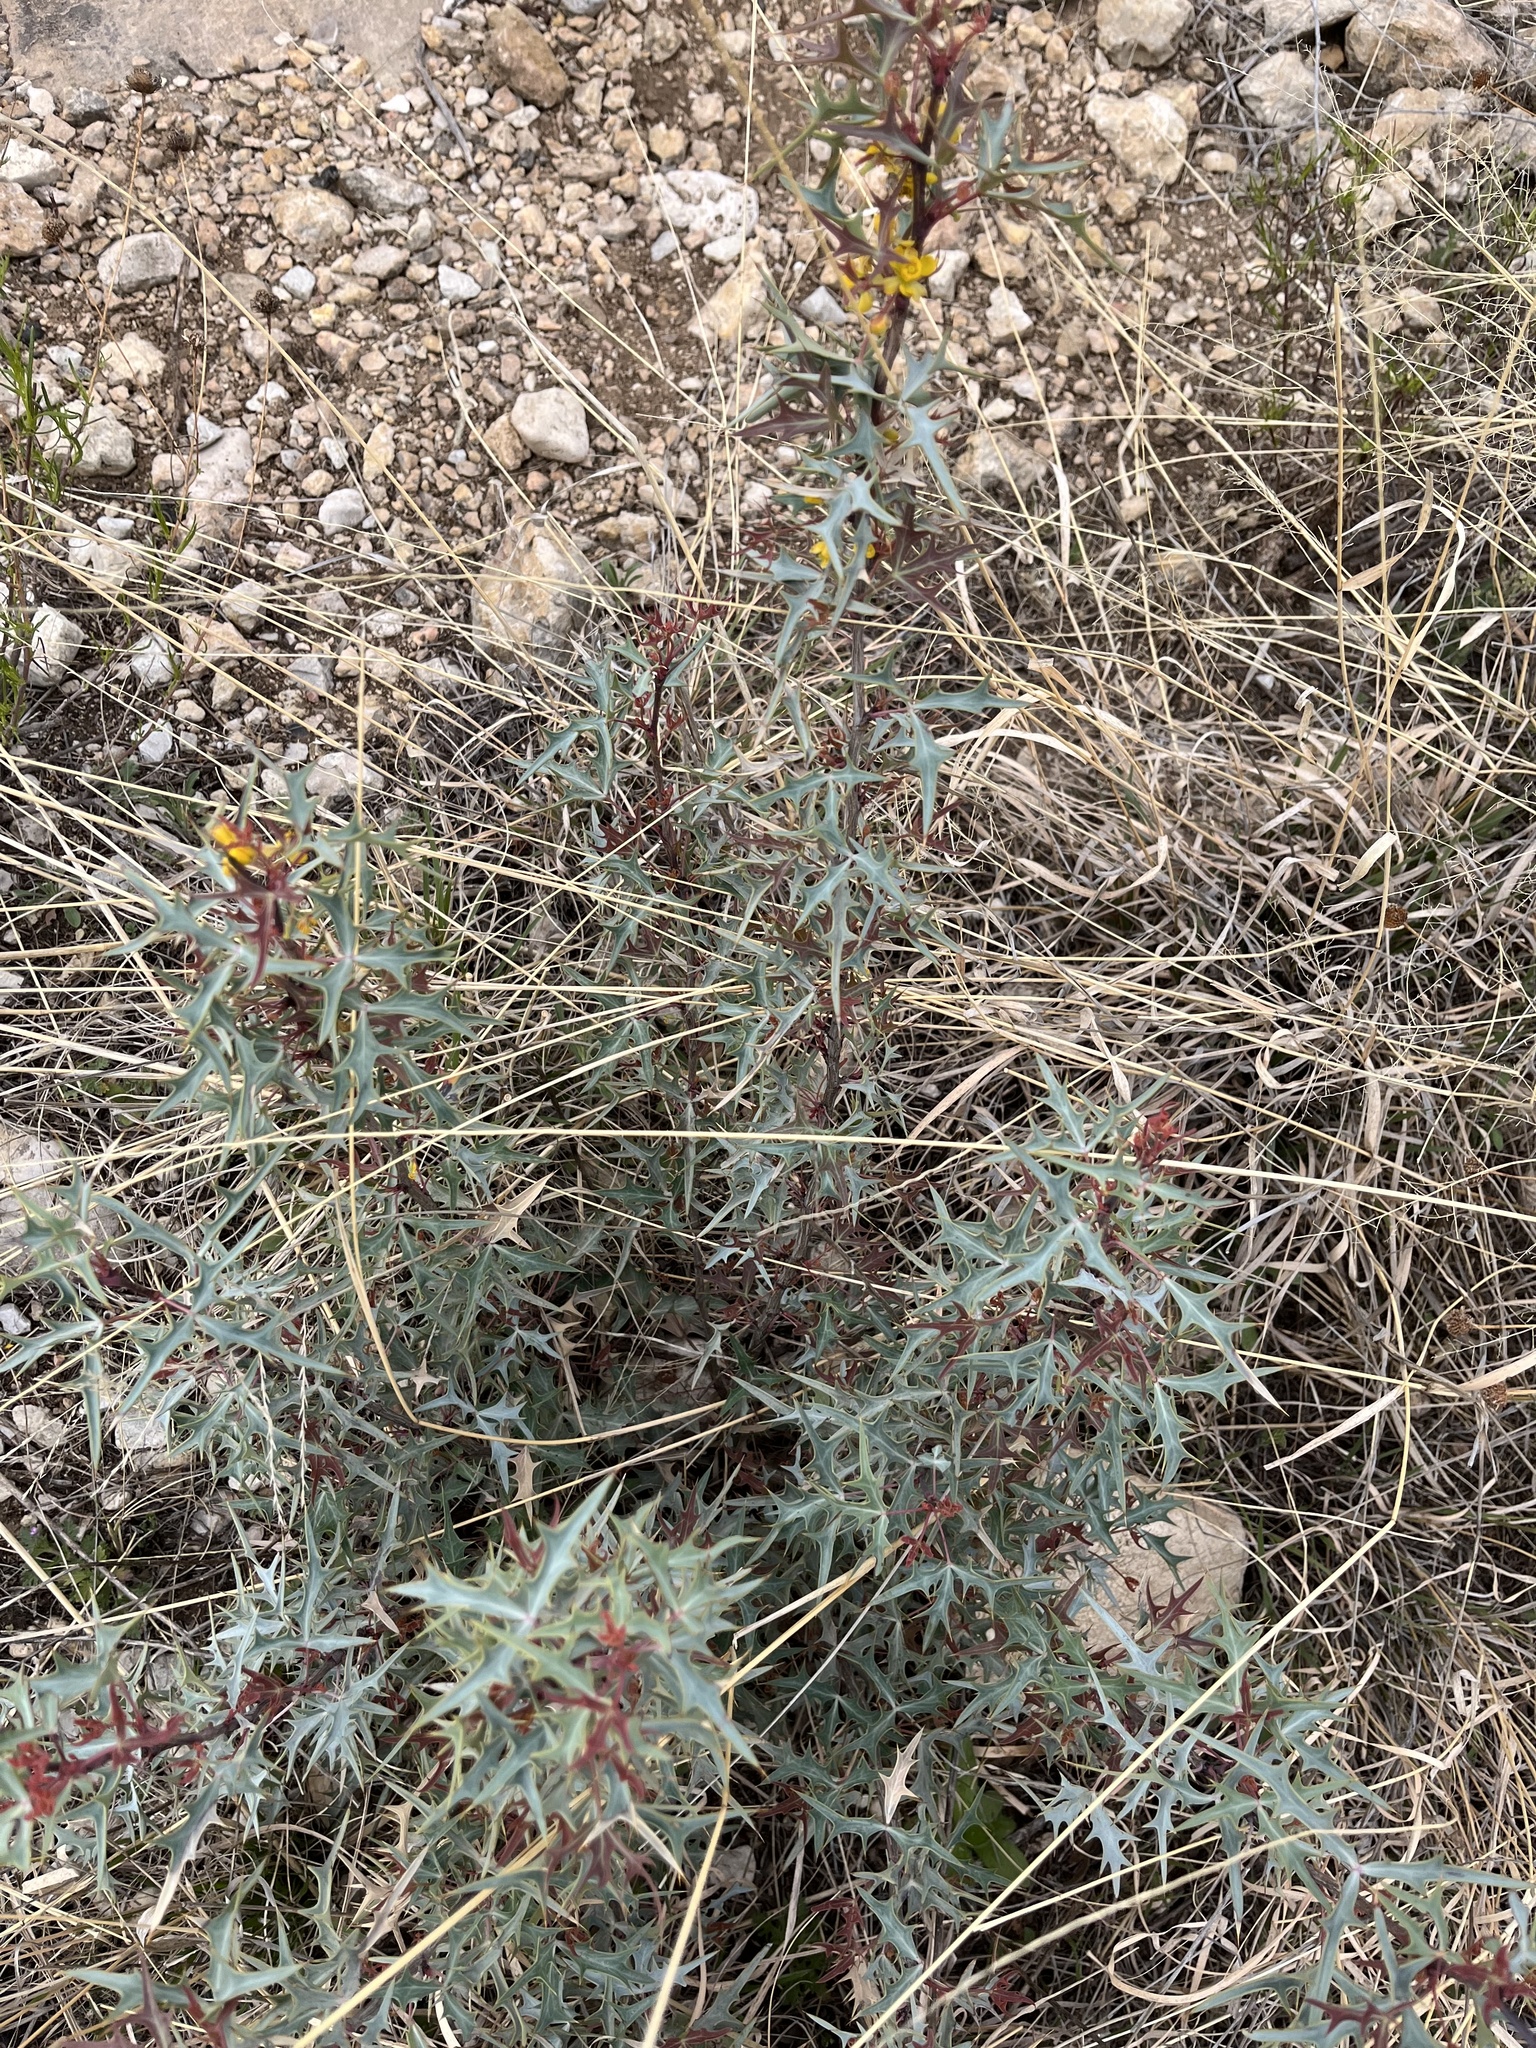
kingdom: Plantae
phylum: Tracheophyta
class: Magnoliopsida
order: Ranunculales
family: Berberidaceae
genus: Alloberberis
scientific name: Alloberberis trifoliolata
